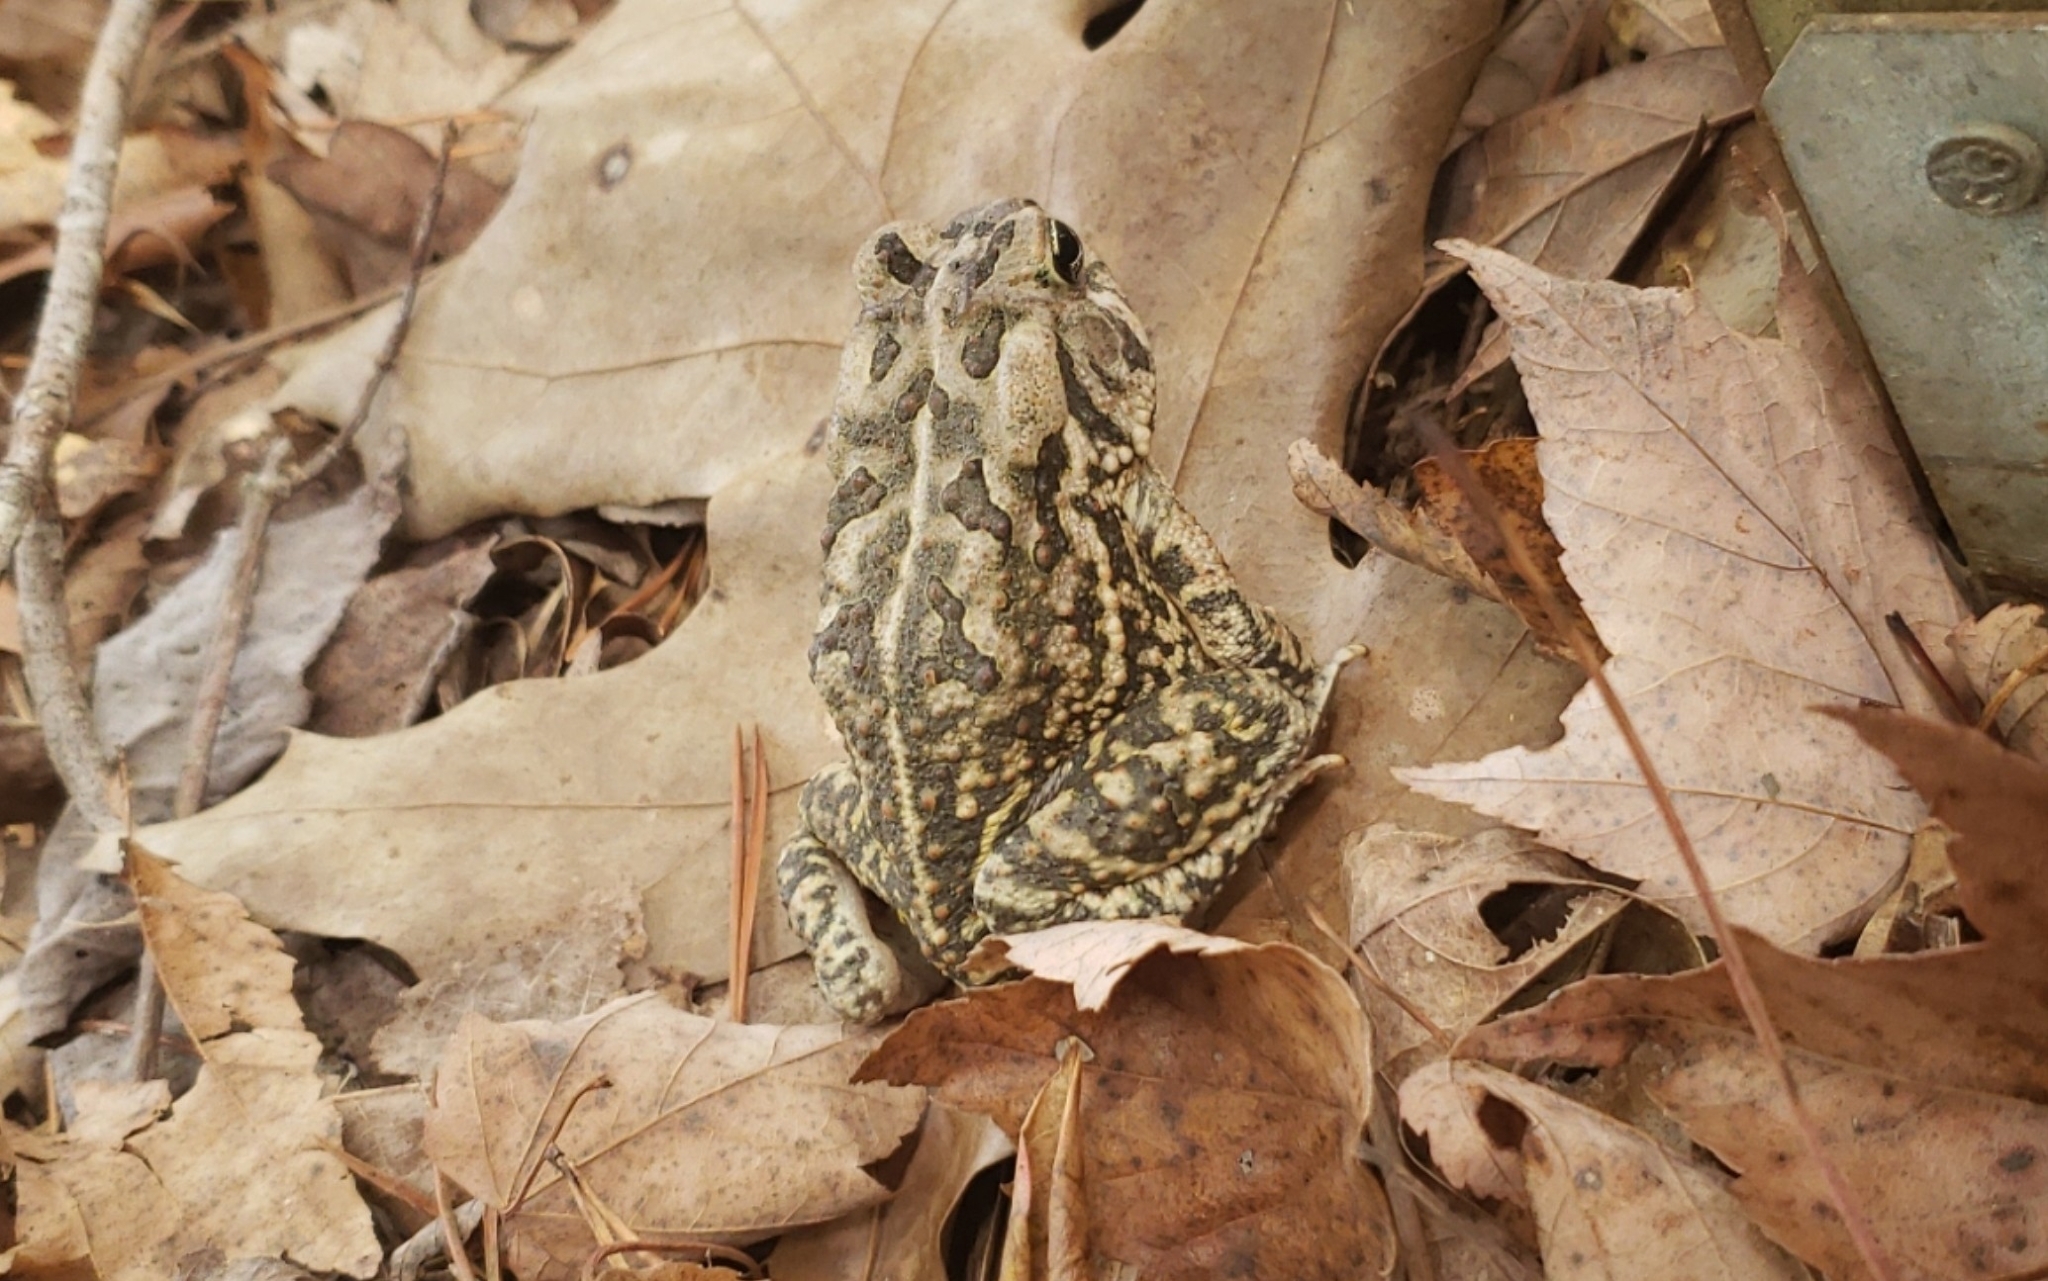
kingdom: Animalia
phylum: Chordata
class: Amphibia
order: Anura
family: Bufonidae
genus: Anaxyrus
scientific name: Anaxyrus fowleri
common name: Fowler's toad
